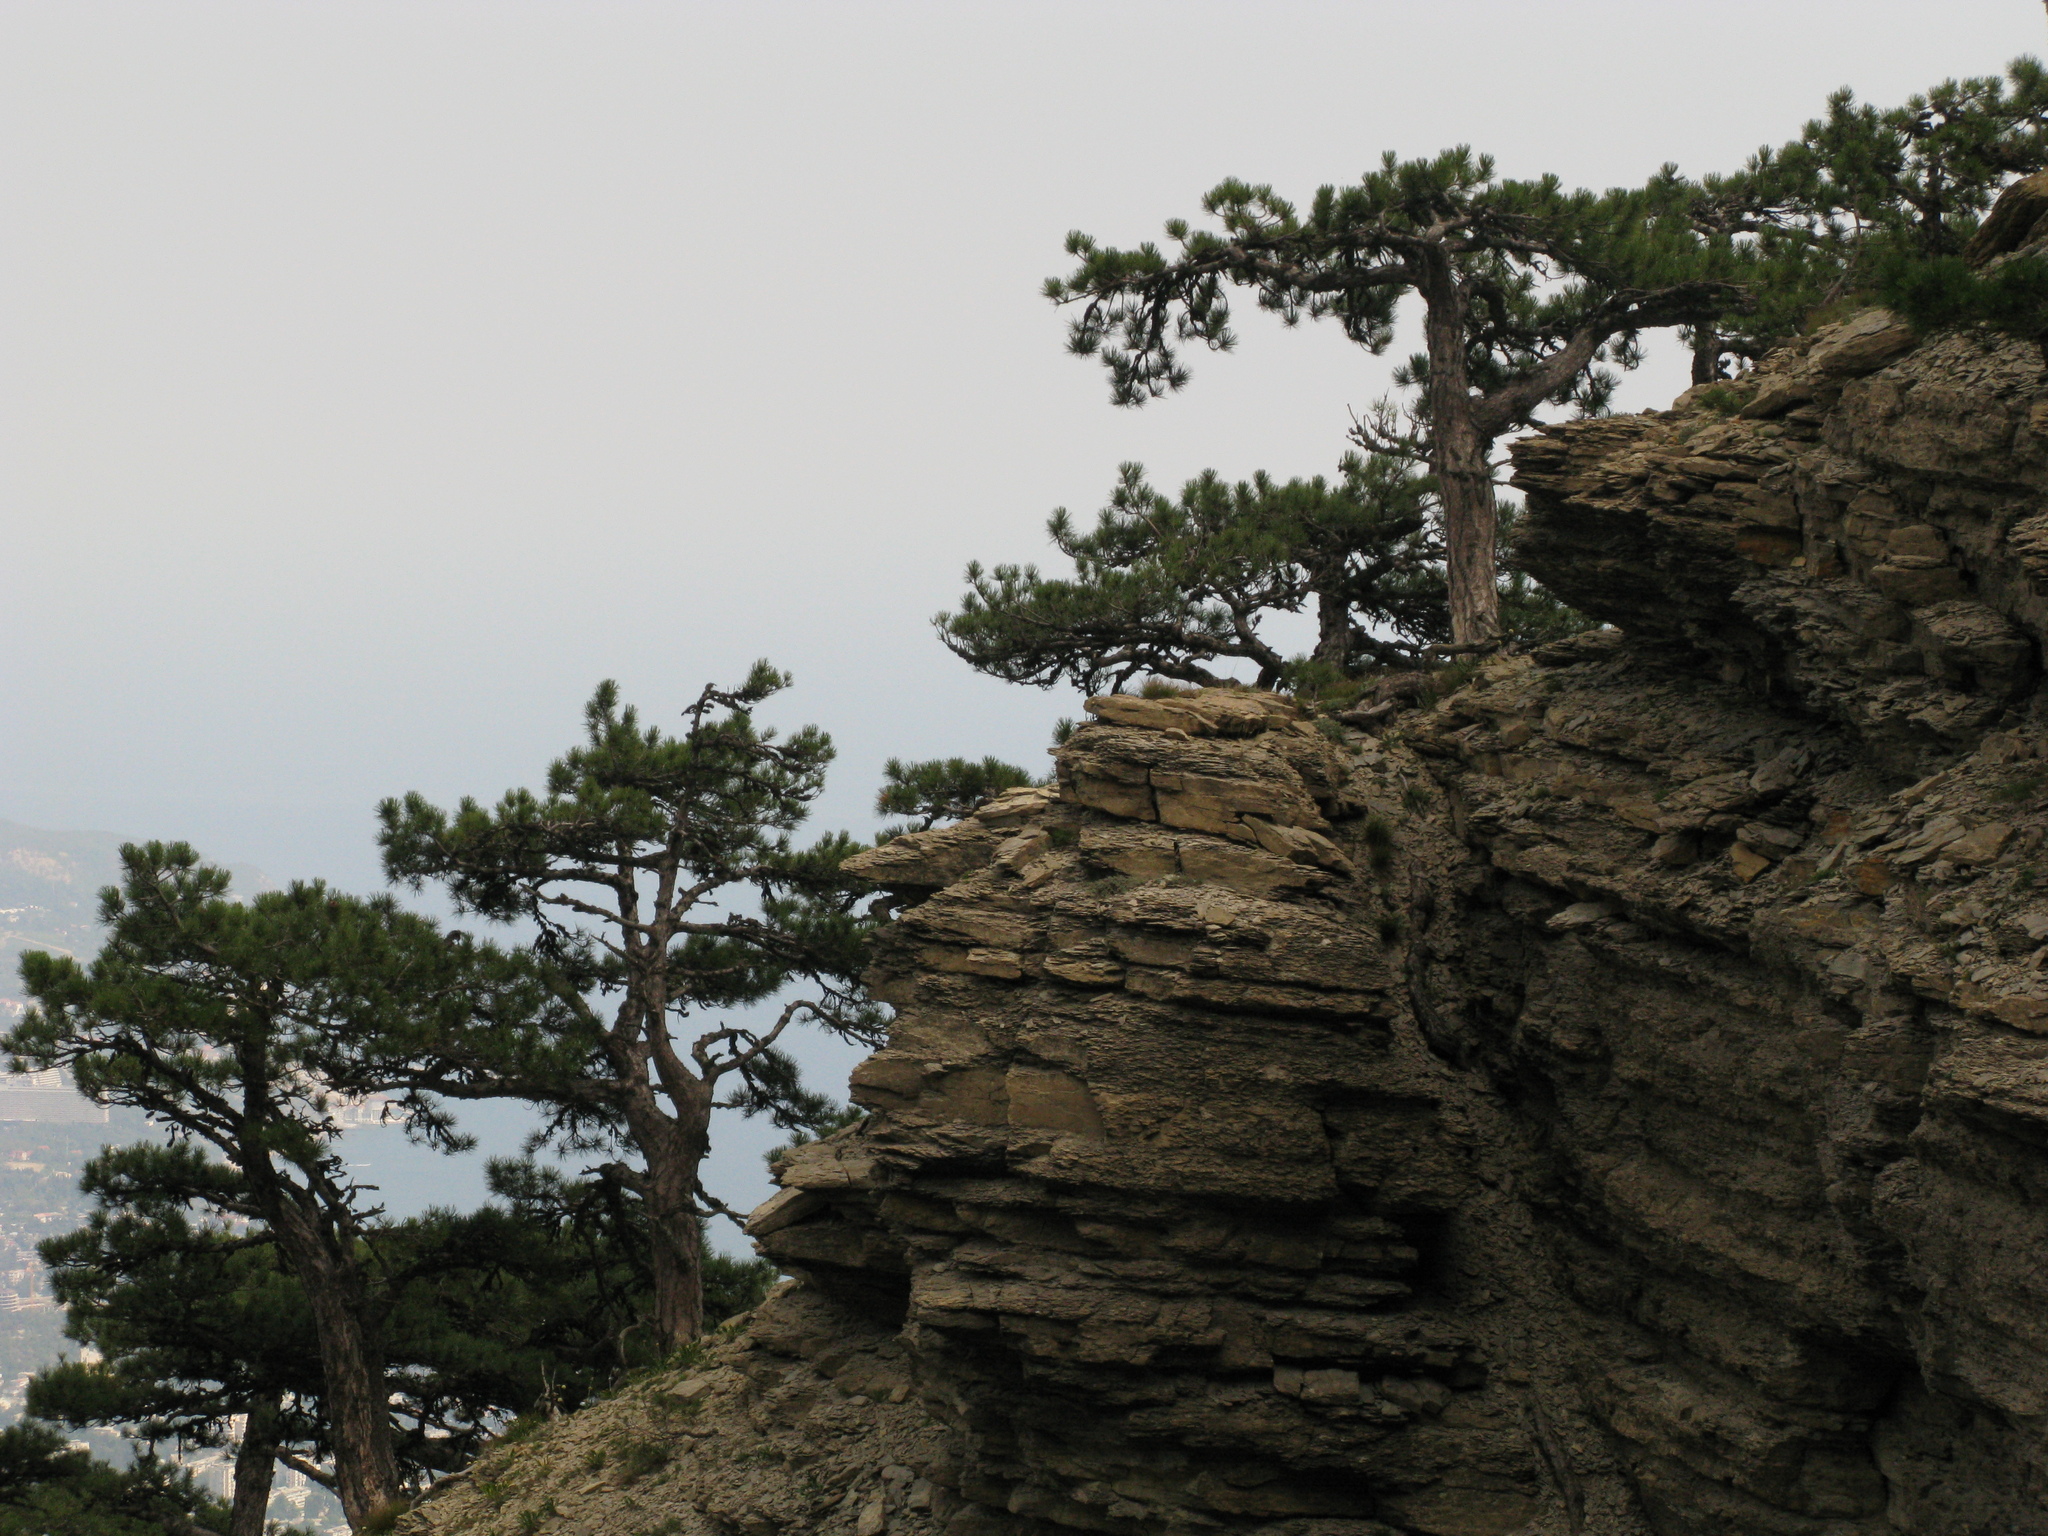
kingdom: Plantae
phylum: Tracheophyta
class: Pinopsida
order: Pinales
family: Pinaceae
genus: Pinus
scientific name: Pinus nigra
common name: Austrian pine
